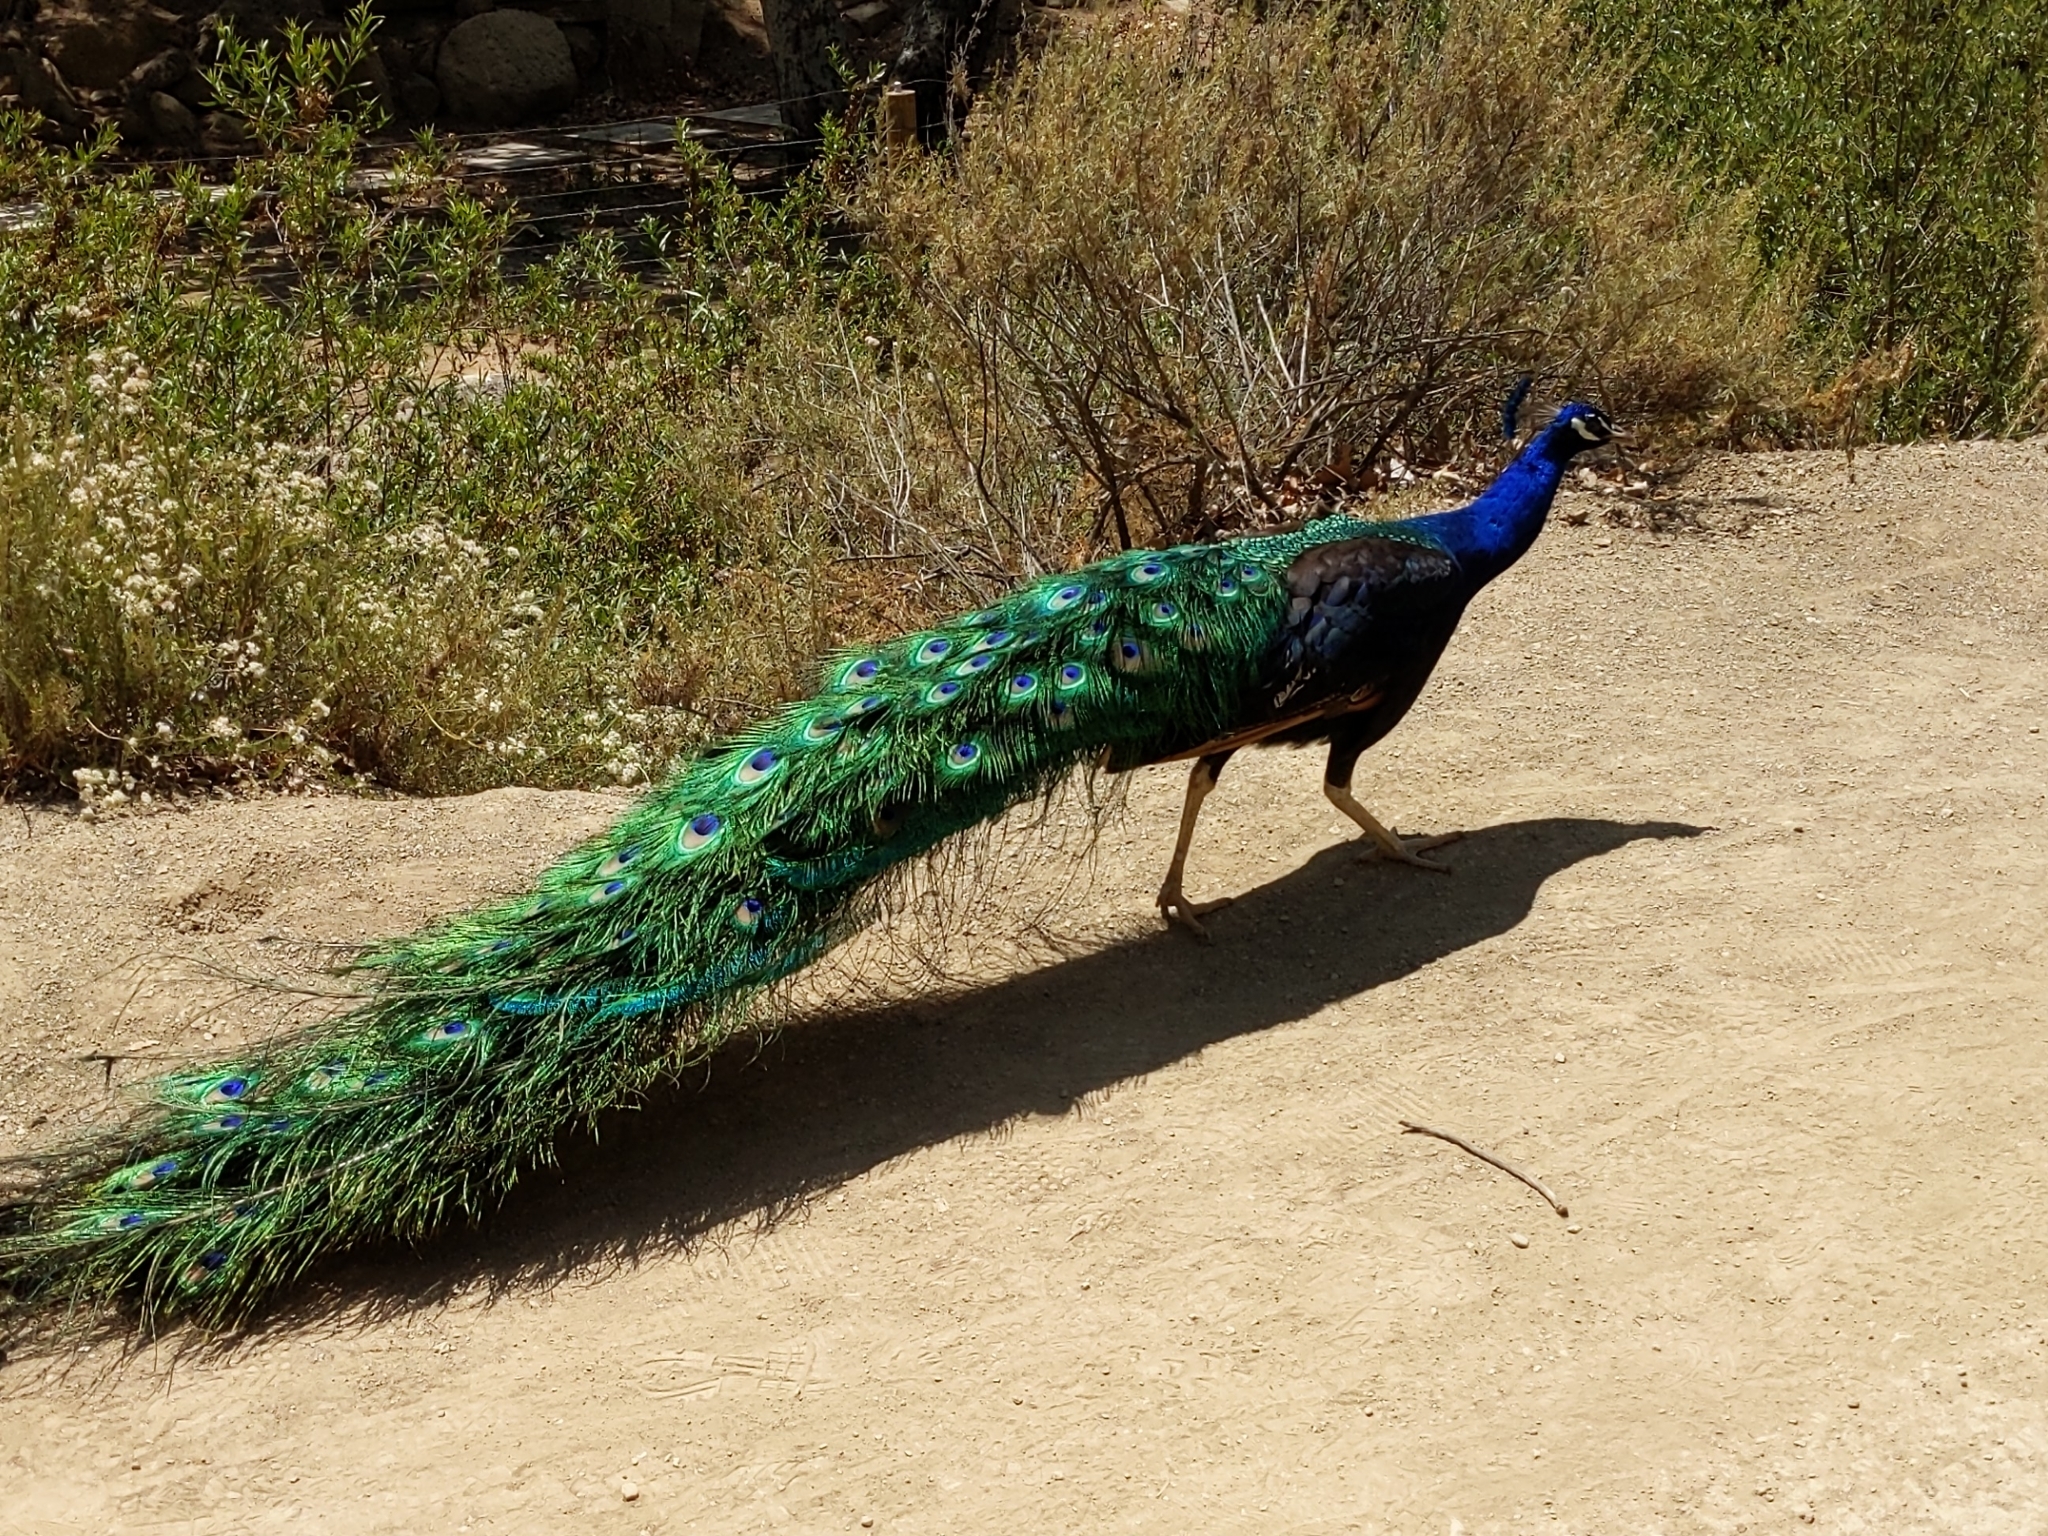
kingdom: Animalia
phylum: Chordata
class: Aves
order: Galliformes
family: Phasianidae
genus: Pavo
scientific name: Pavo cristatus
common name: Indian peafowl
